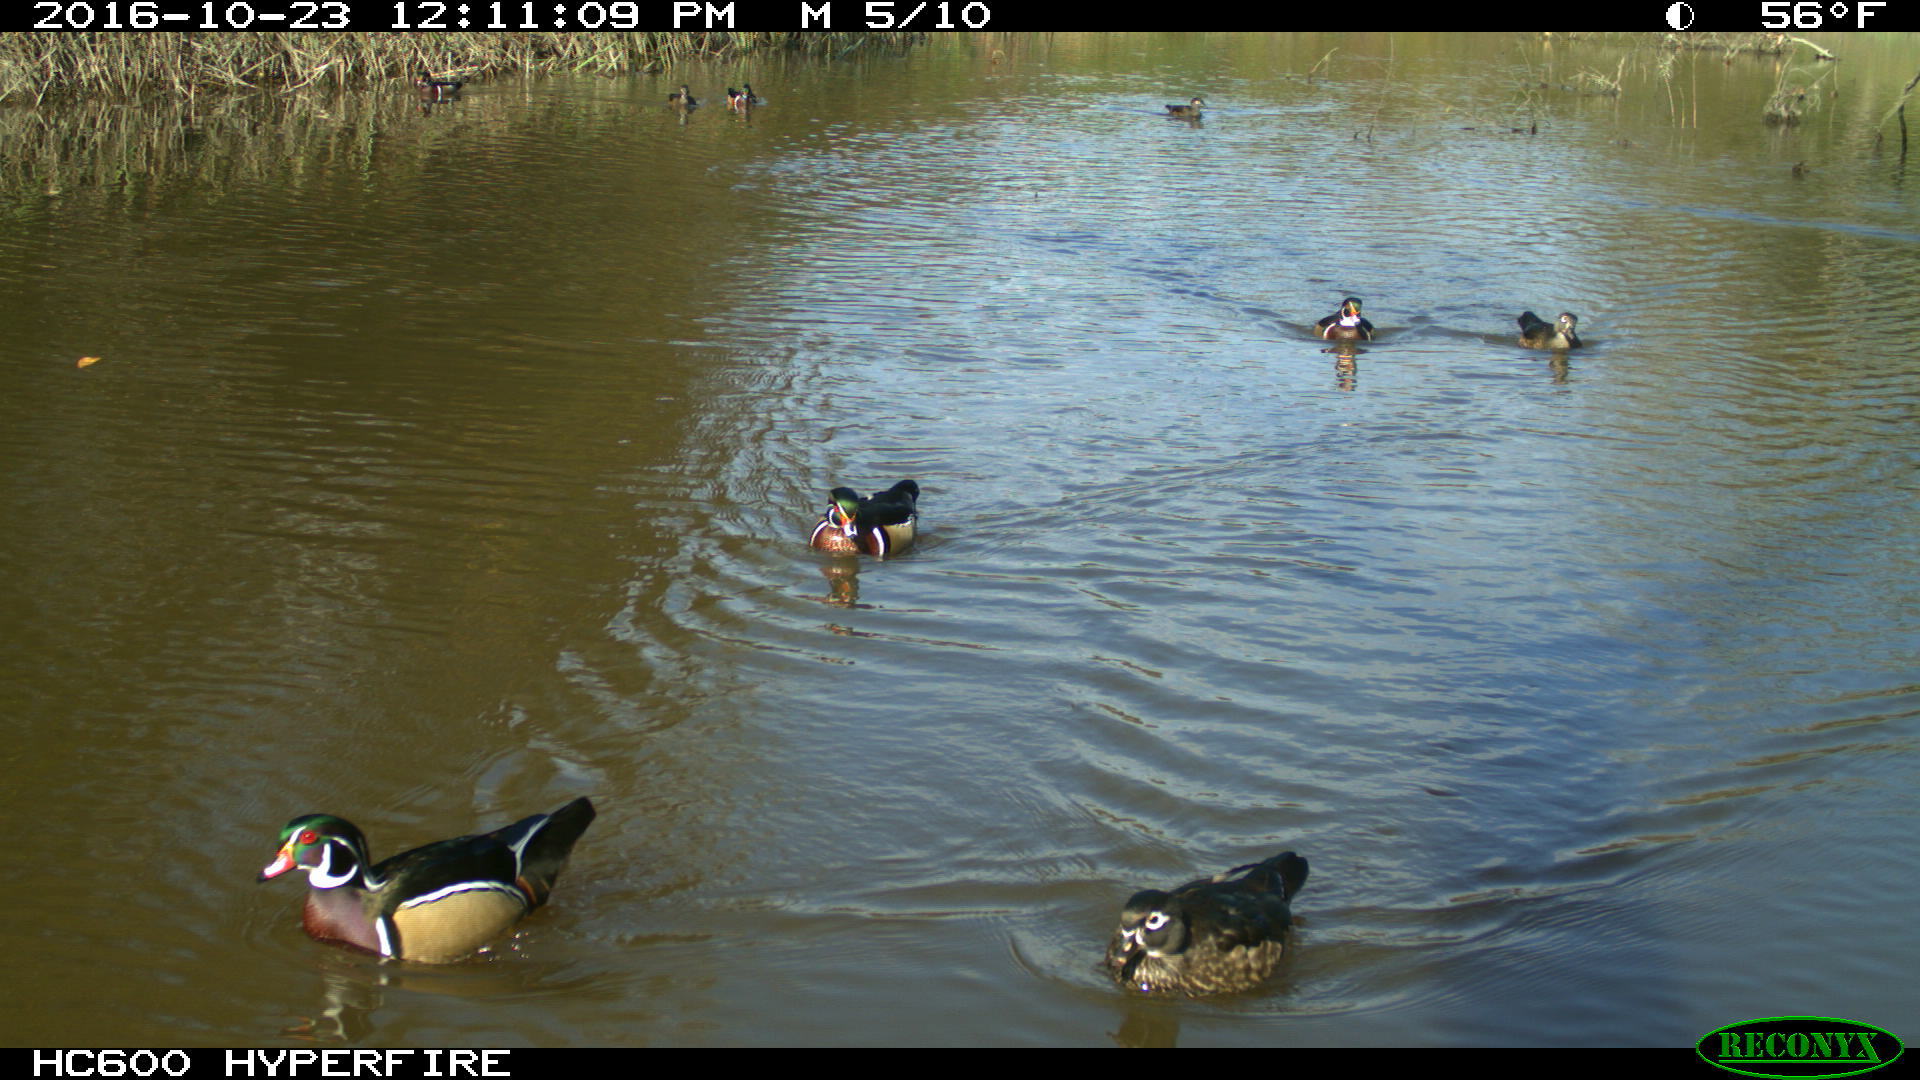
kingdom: Animalia
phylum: Chordata
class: Aves
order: Anseriformes
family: Anatidae
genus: Aix
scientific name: Aix sponsa
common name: Wood duck
